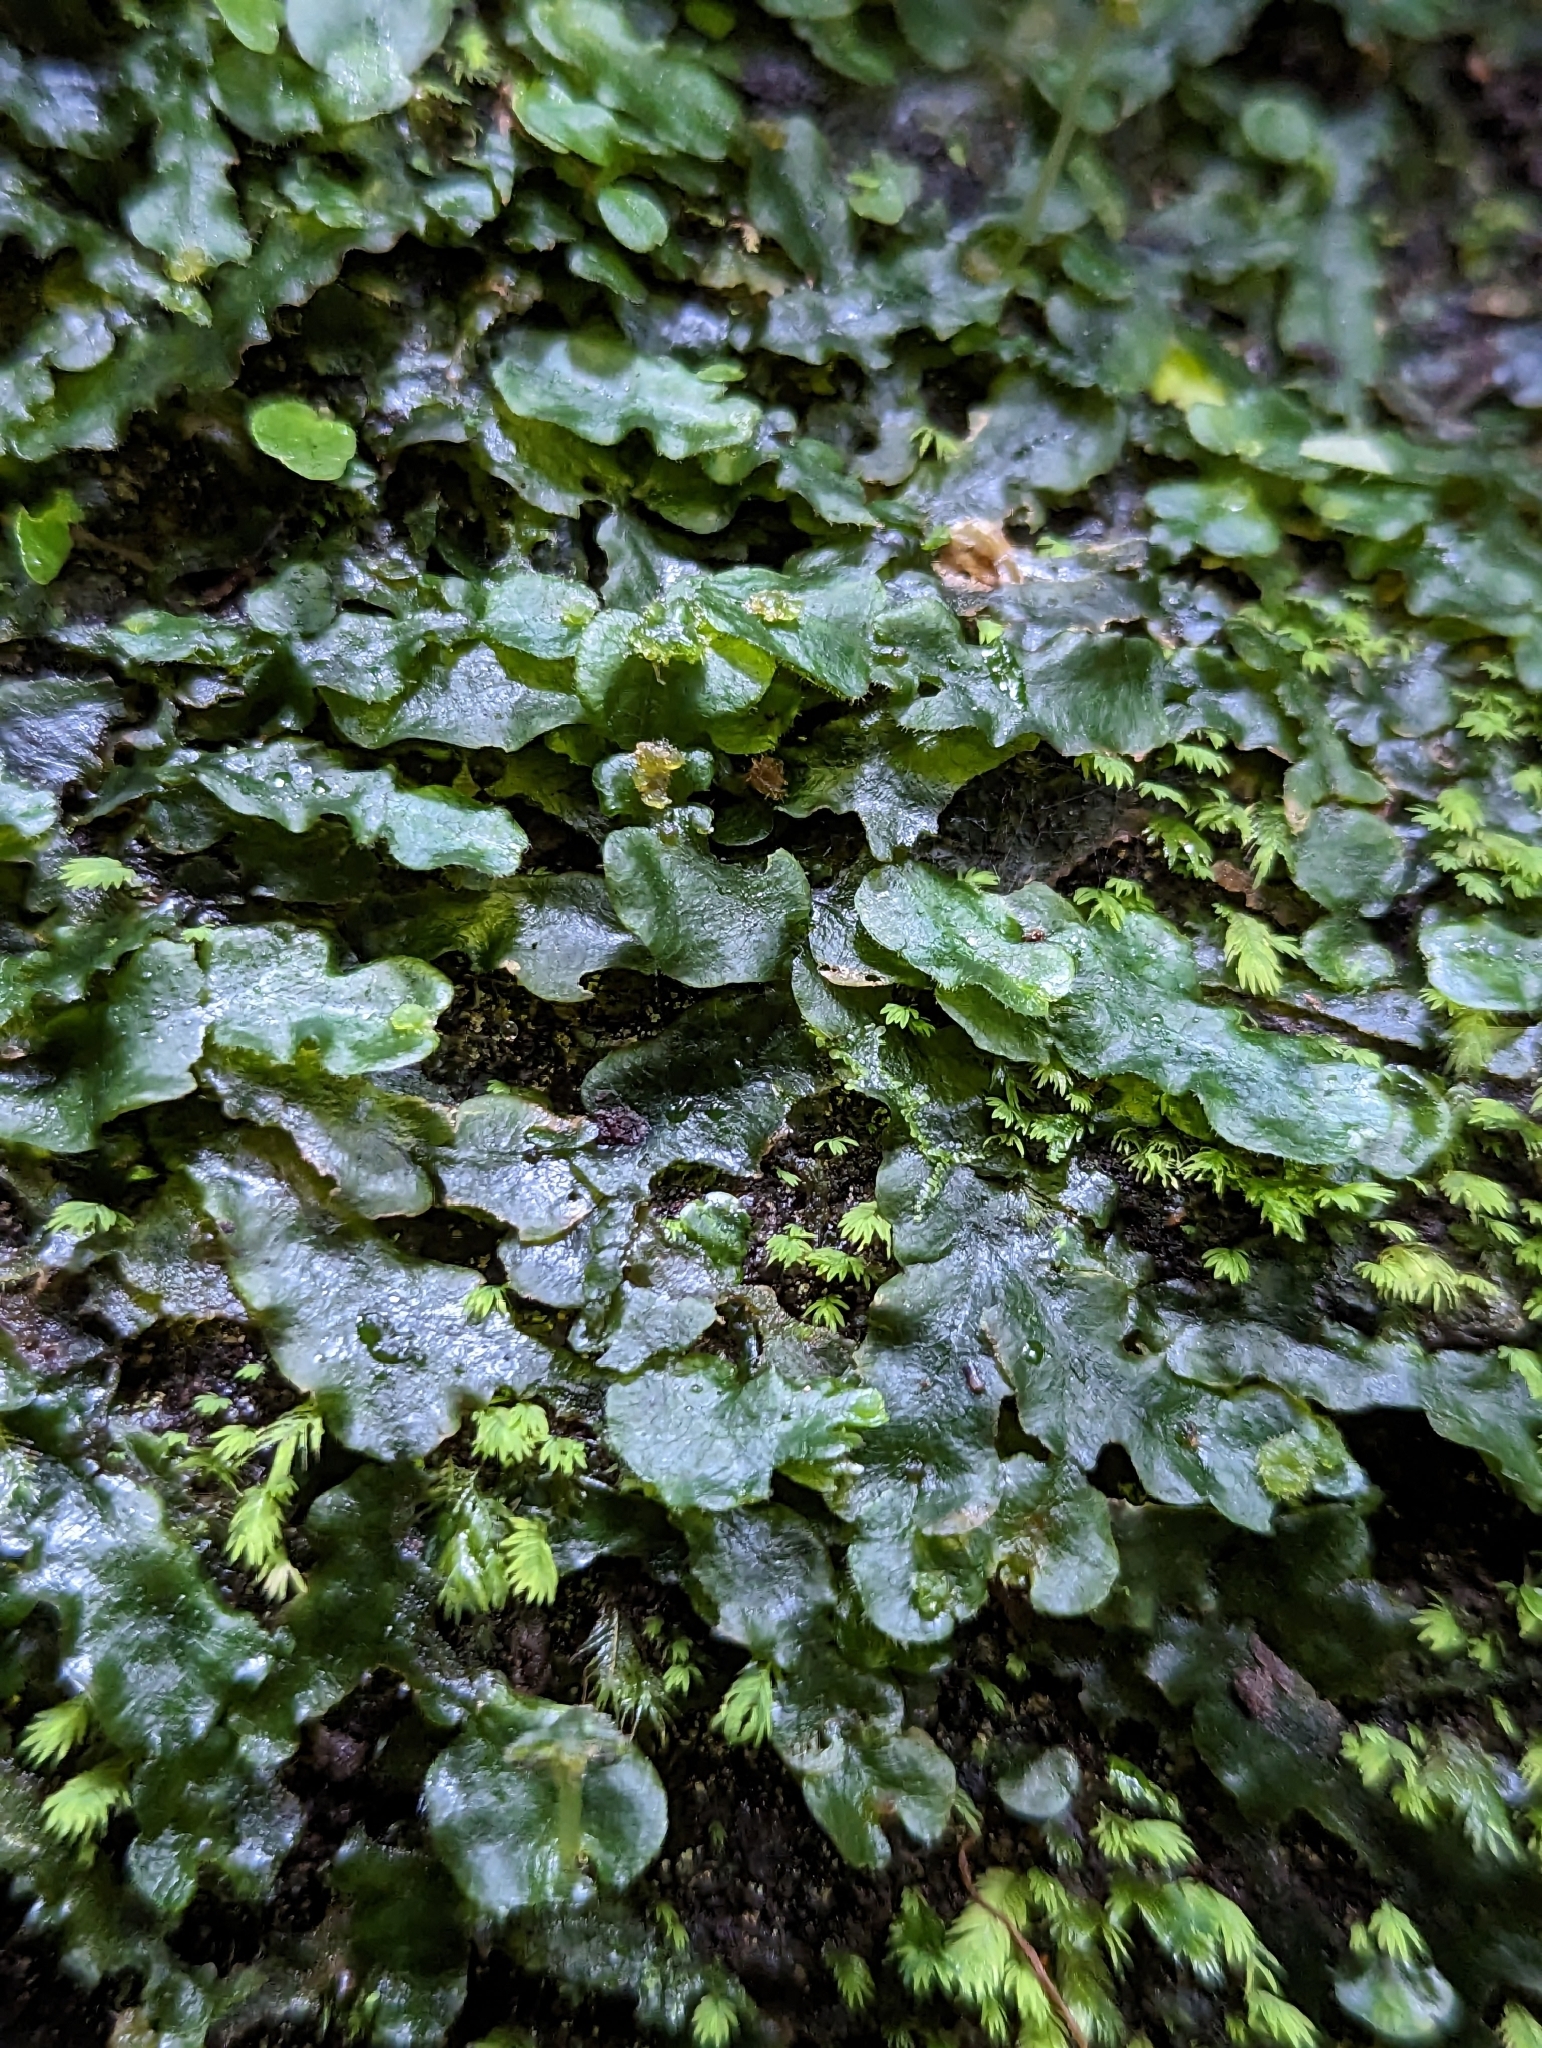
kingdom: Plantae
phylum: Marchantiophyta
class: Marchantiopsida
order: Marchantiales
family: Dumortieraceae
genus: Dumortiera
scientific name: Dumortiera hirsuta
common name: Dumortier's liverwort
